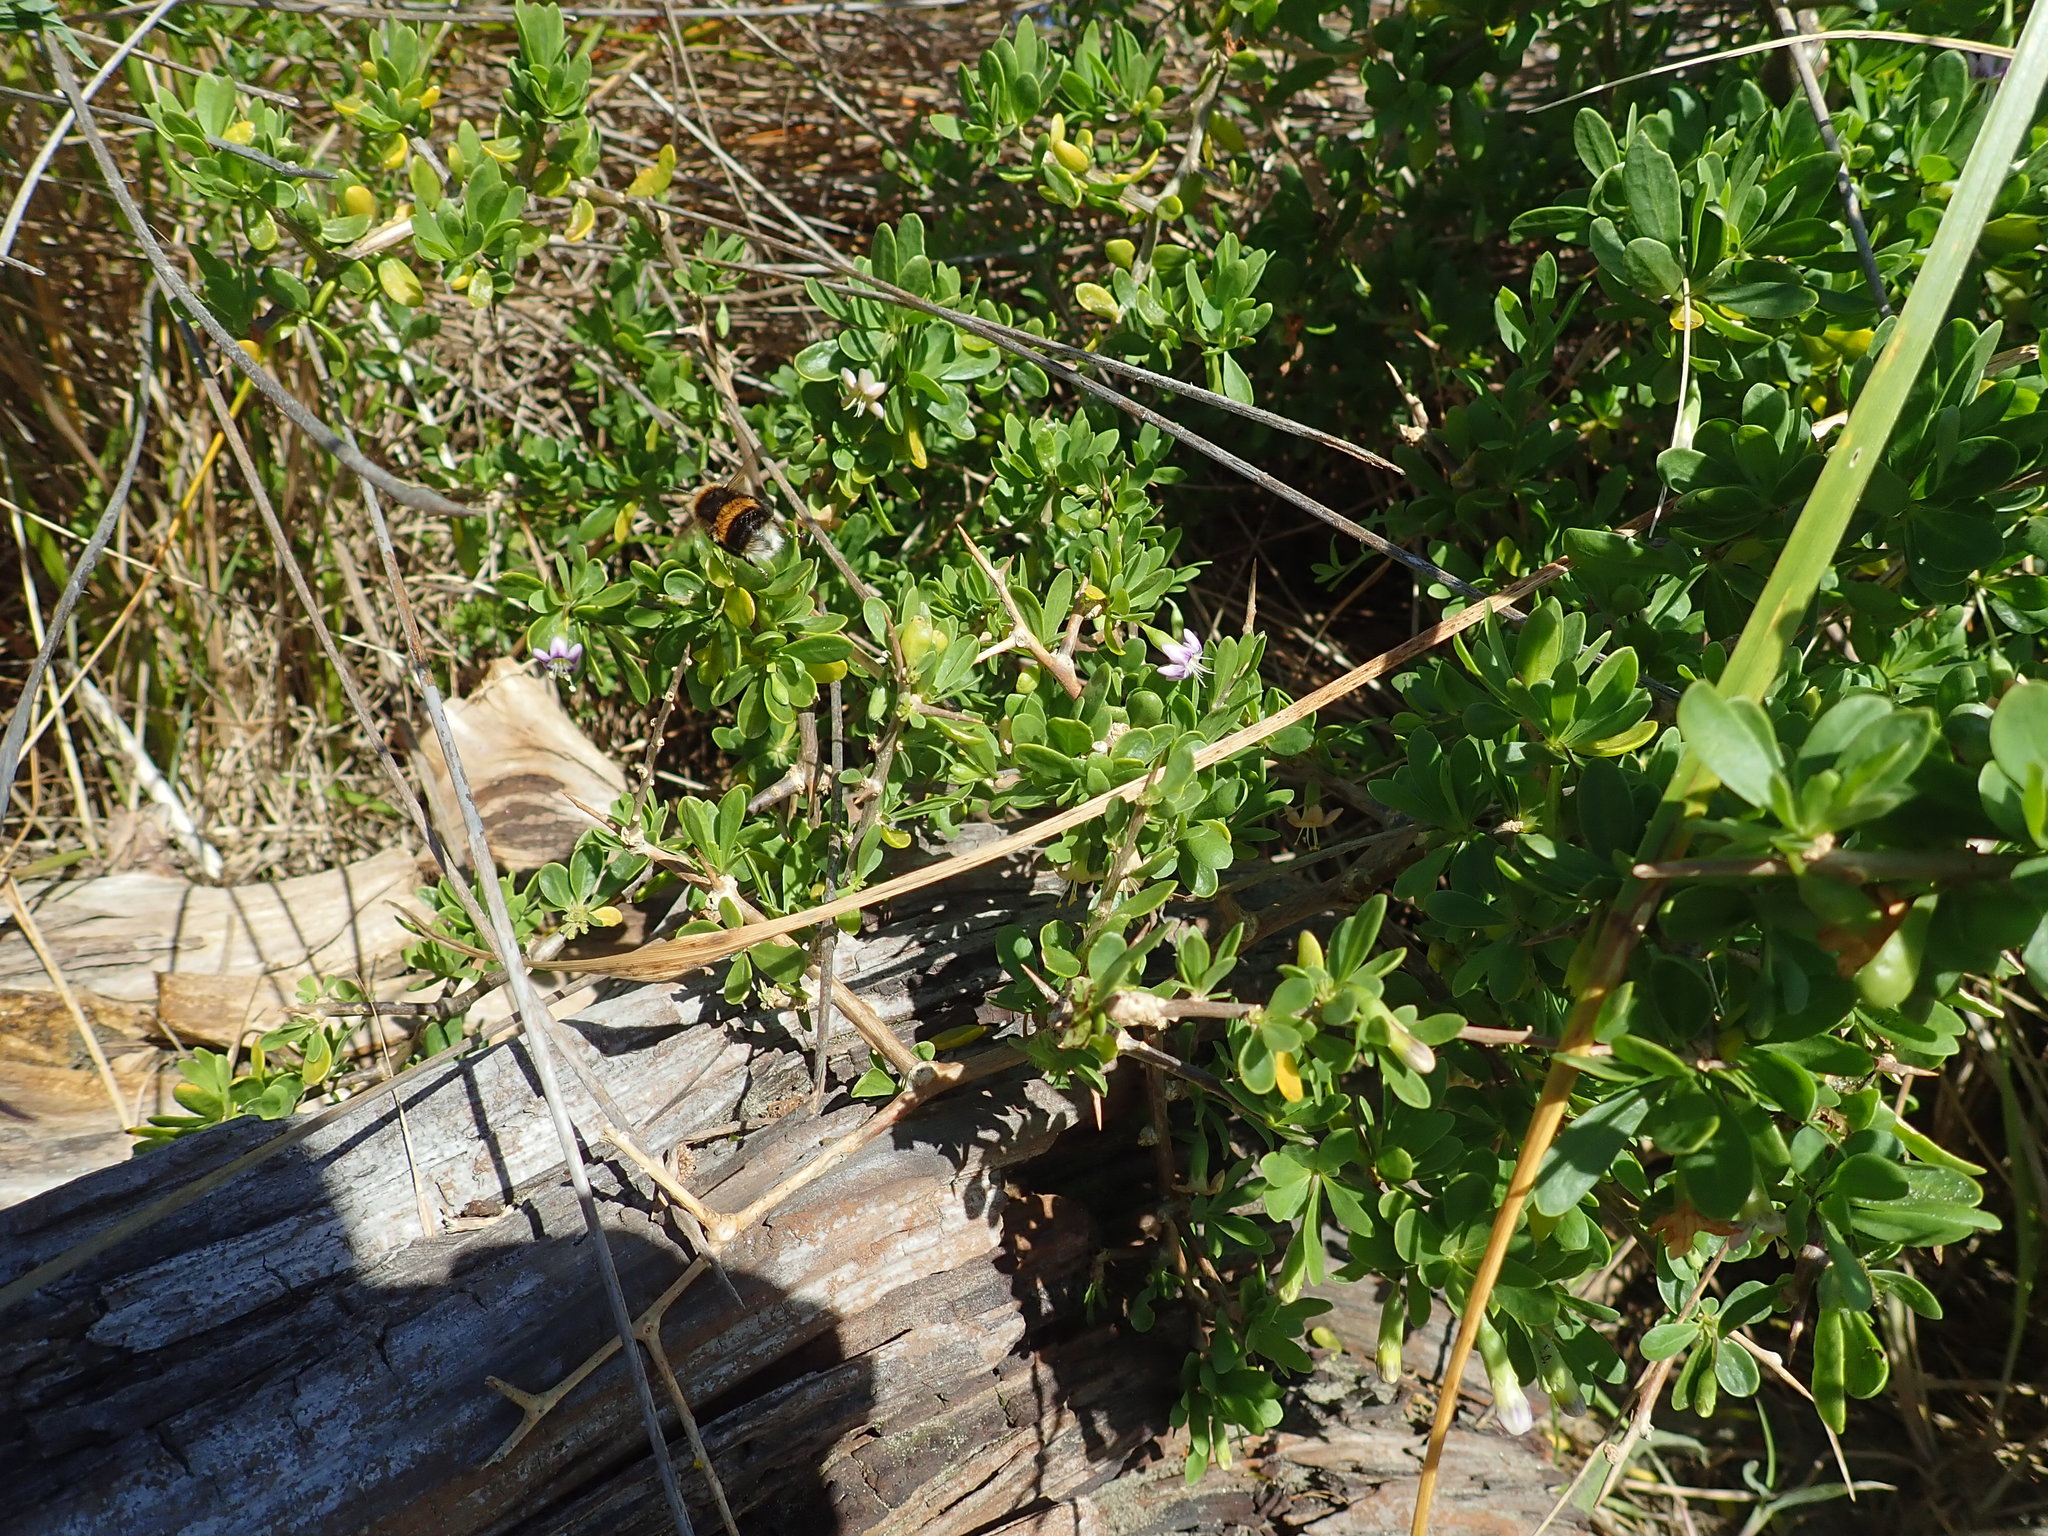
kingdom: Plantae
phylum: Tracheophyta
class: Magnoliopsida
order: Solanales
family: Solanaceae
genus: Lycium
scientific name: Lycium ferocissimum
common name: African boxthorn
